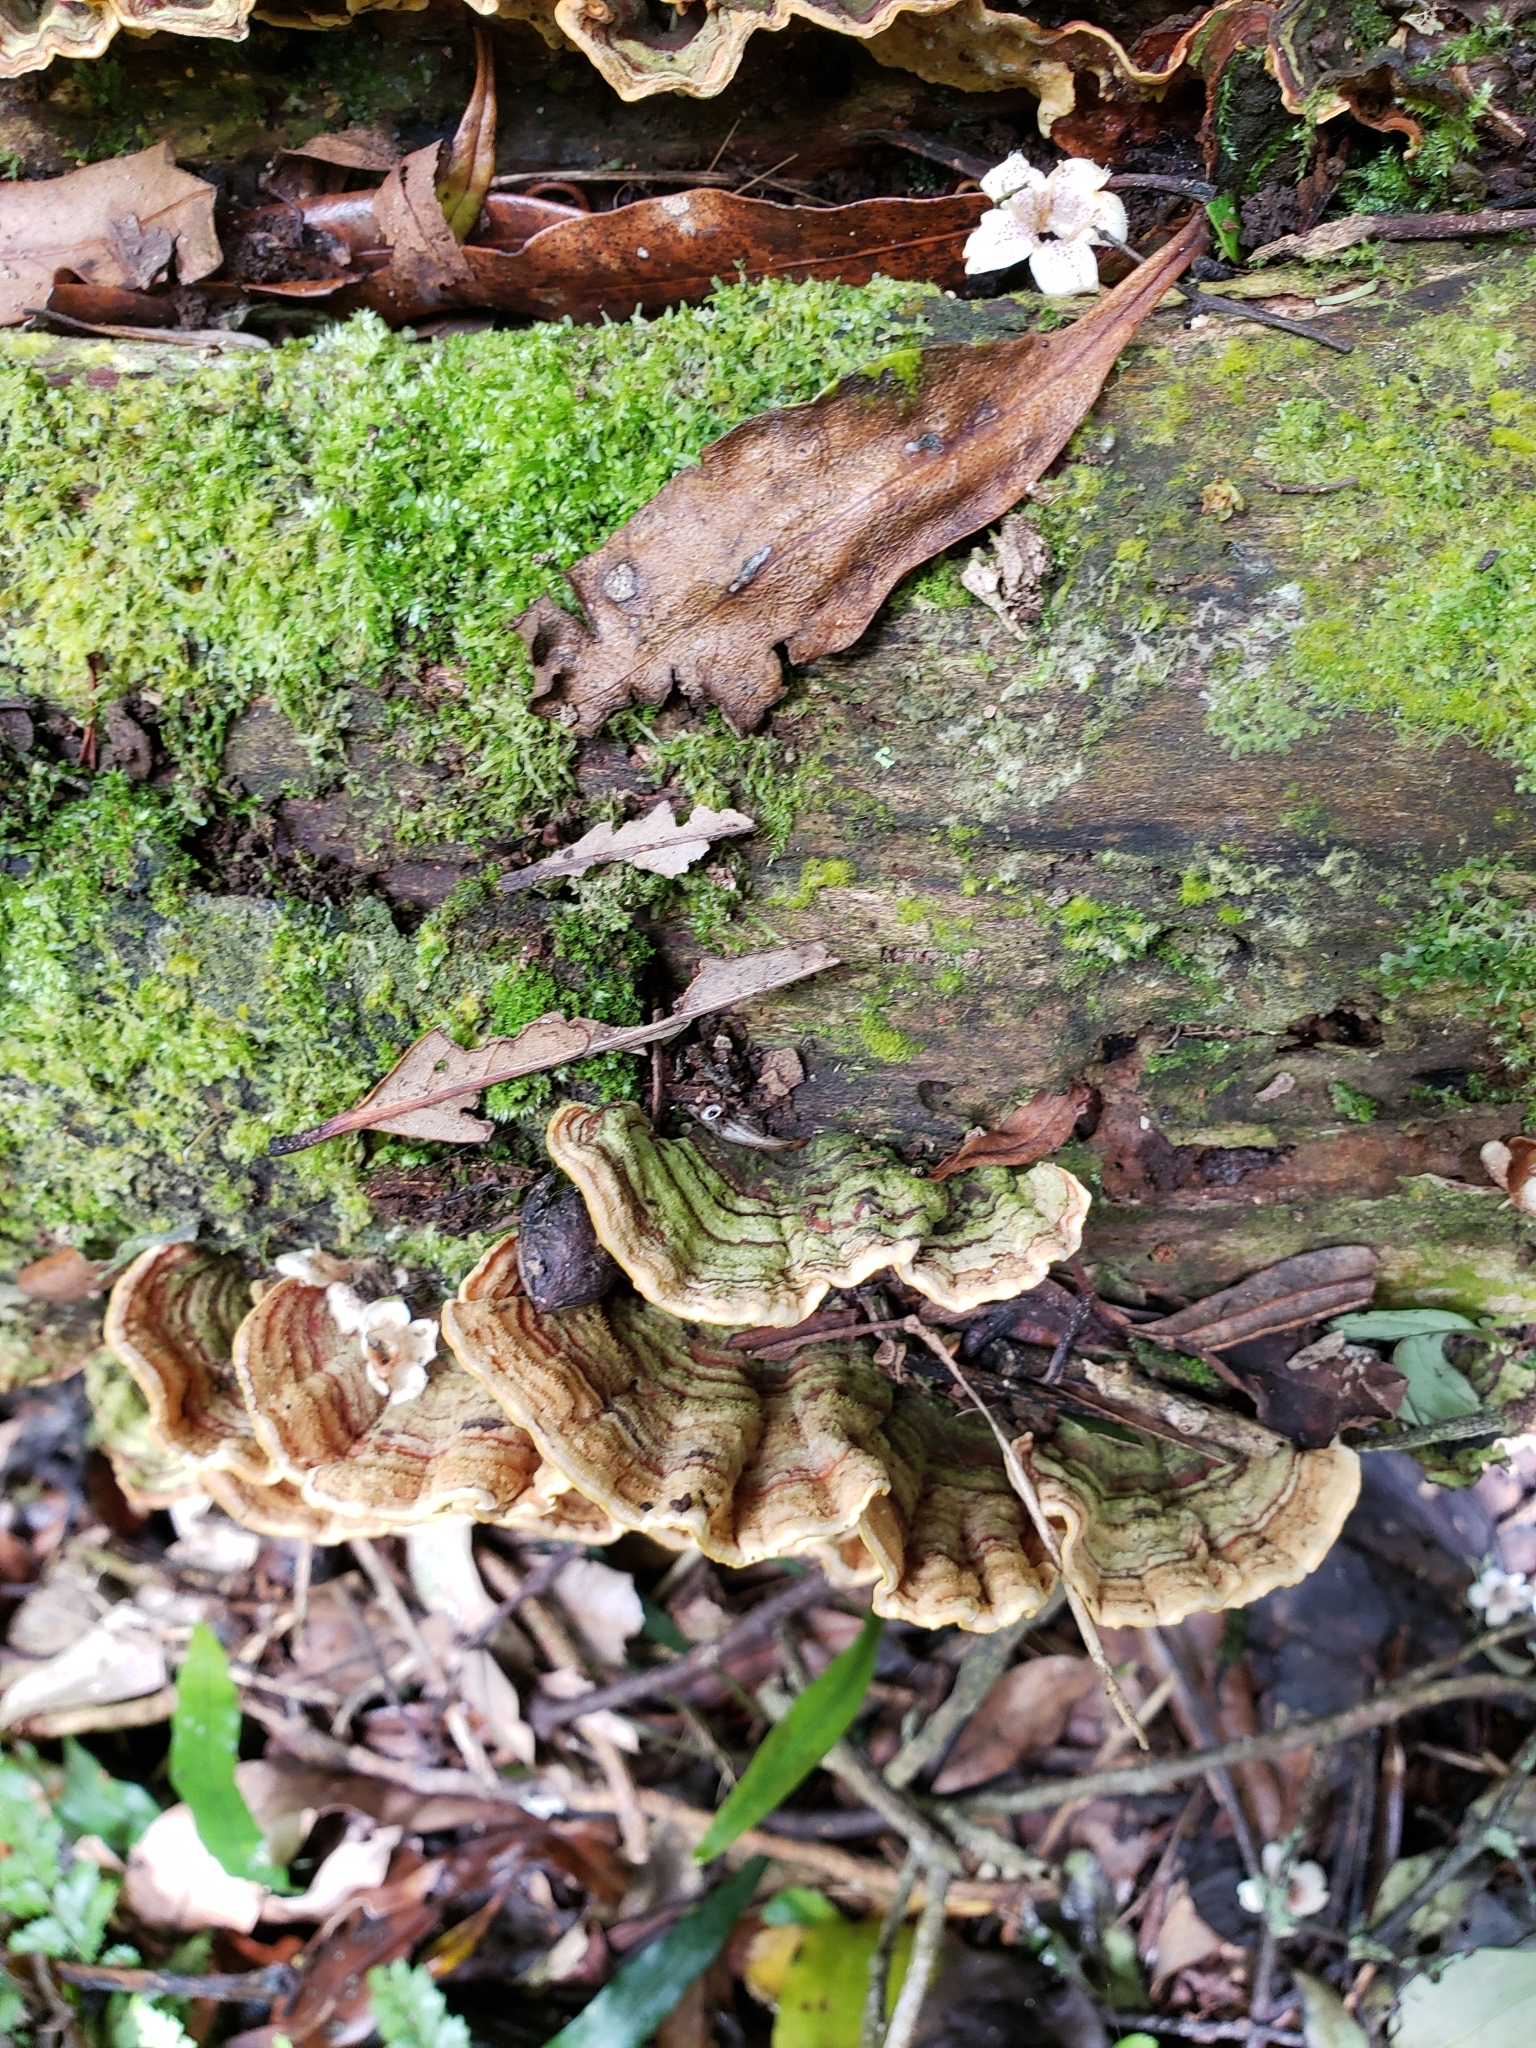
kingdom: Fungi
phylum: Basidiomycota
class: Agaricomycetes
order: Russulales
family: Stereaceae
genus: Stereum
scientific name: Stereum versicolor
